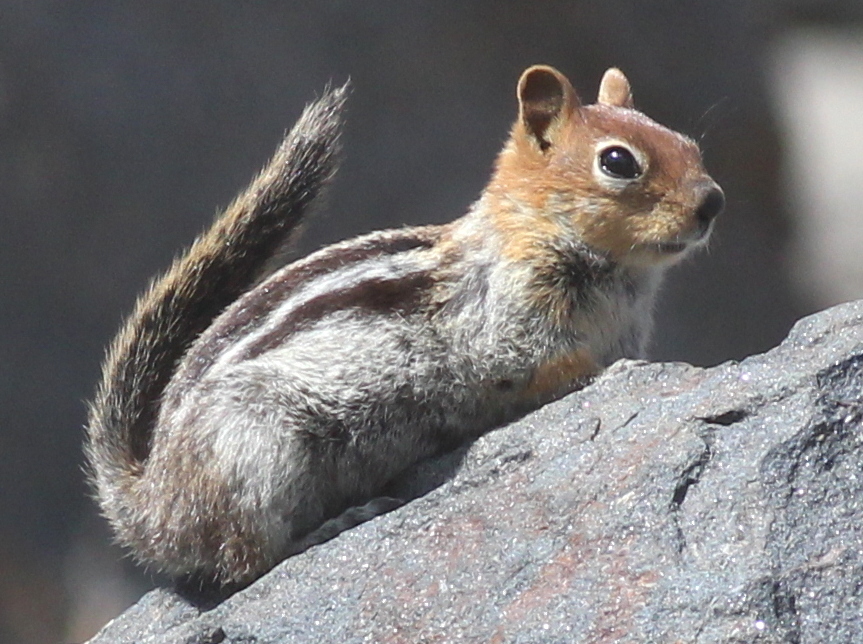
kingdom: Animalia
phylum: Chordata
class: Mammalia
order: Rodentia
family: Sciuridae
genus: Callospermophilus
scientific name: Callospermophilus lateralis
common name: Golden-mantled ground squirrel
